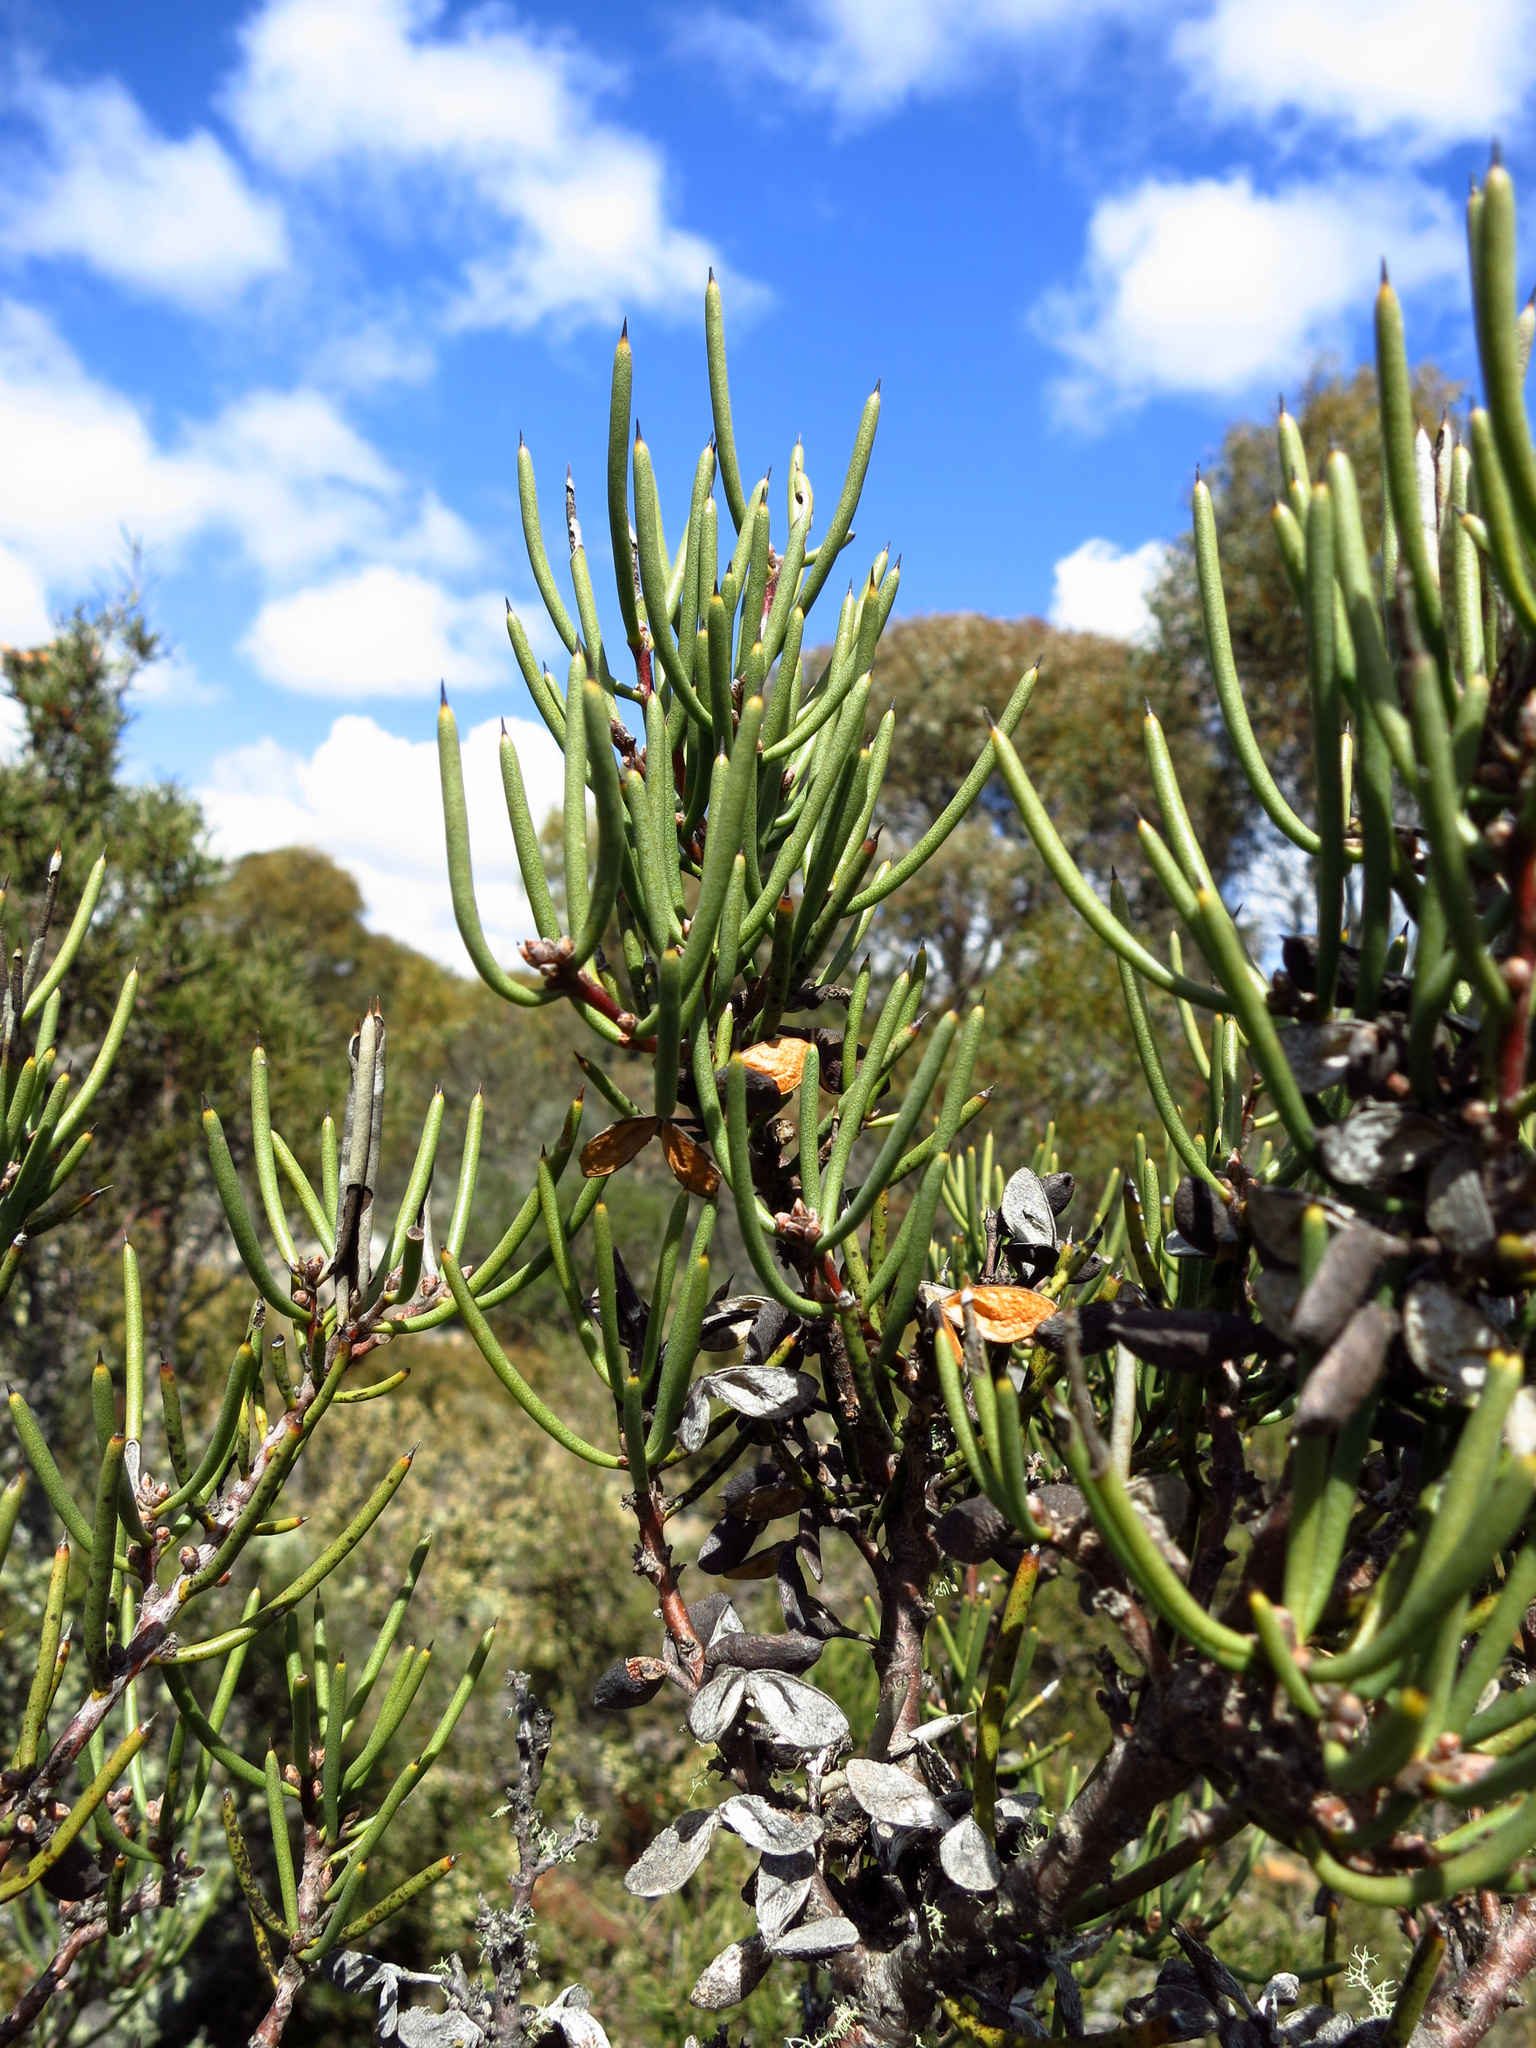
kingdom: Plantae
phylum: Tracheophyta
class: Magnoliopsida
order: Proteales
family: Proteaceae
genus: Hakea
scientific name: Hakea microcarpa
